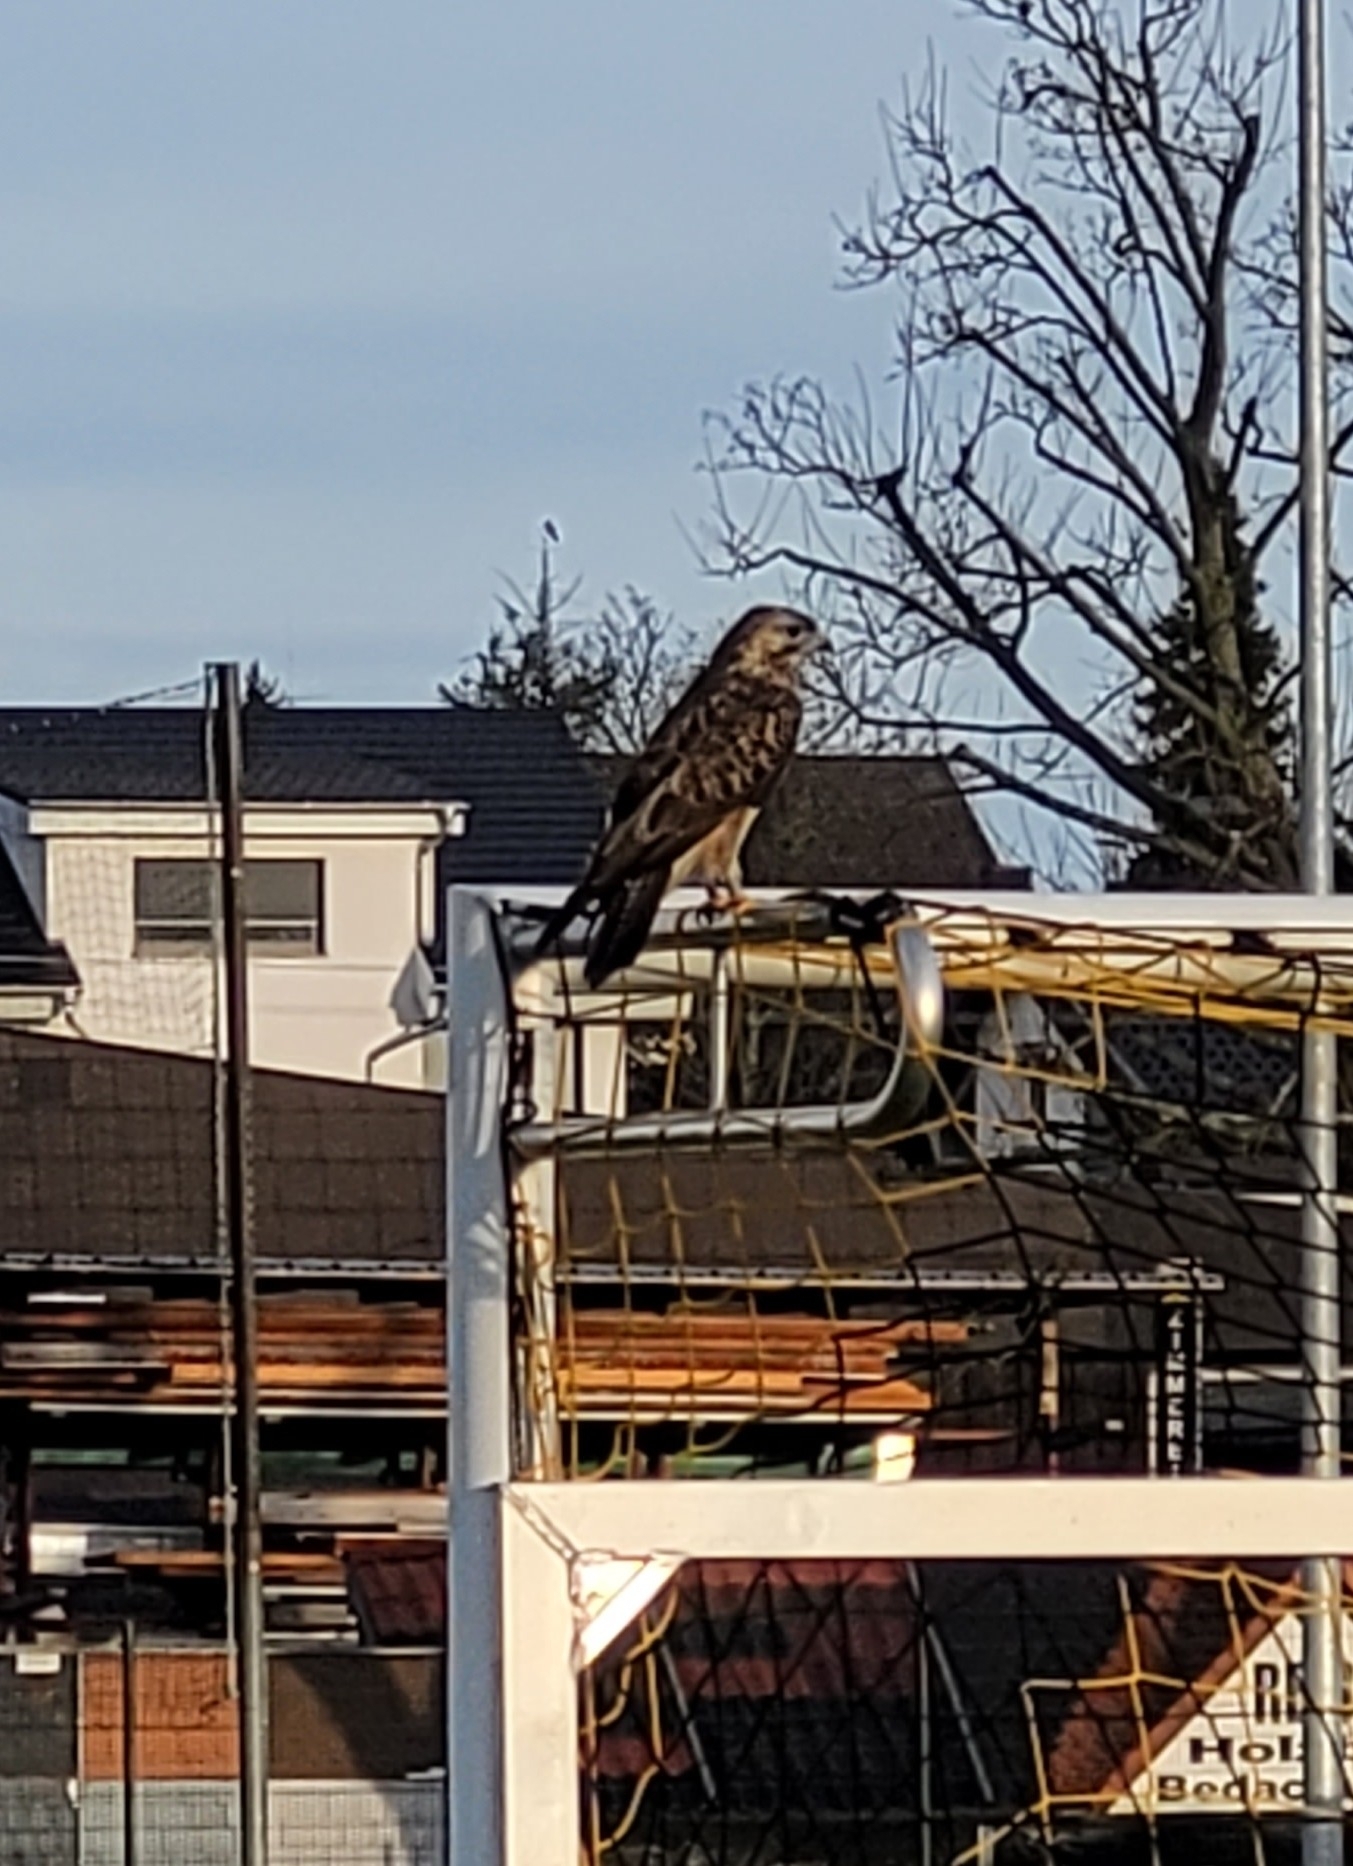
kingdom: Animalia
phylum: Chordata
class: Aves
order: Accipitriformes
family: Accipitridae
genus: Buteo
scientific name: Buteo buteo
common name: Common buzzard
